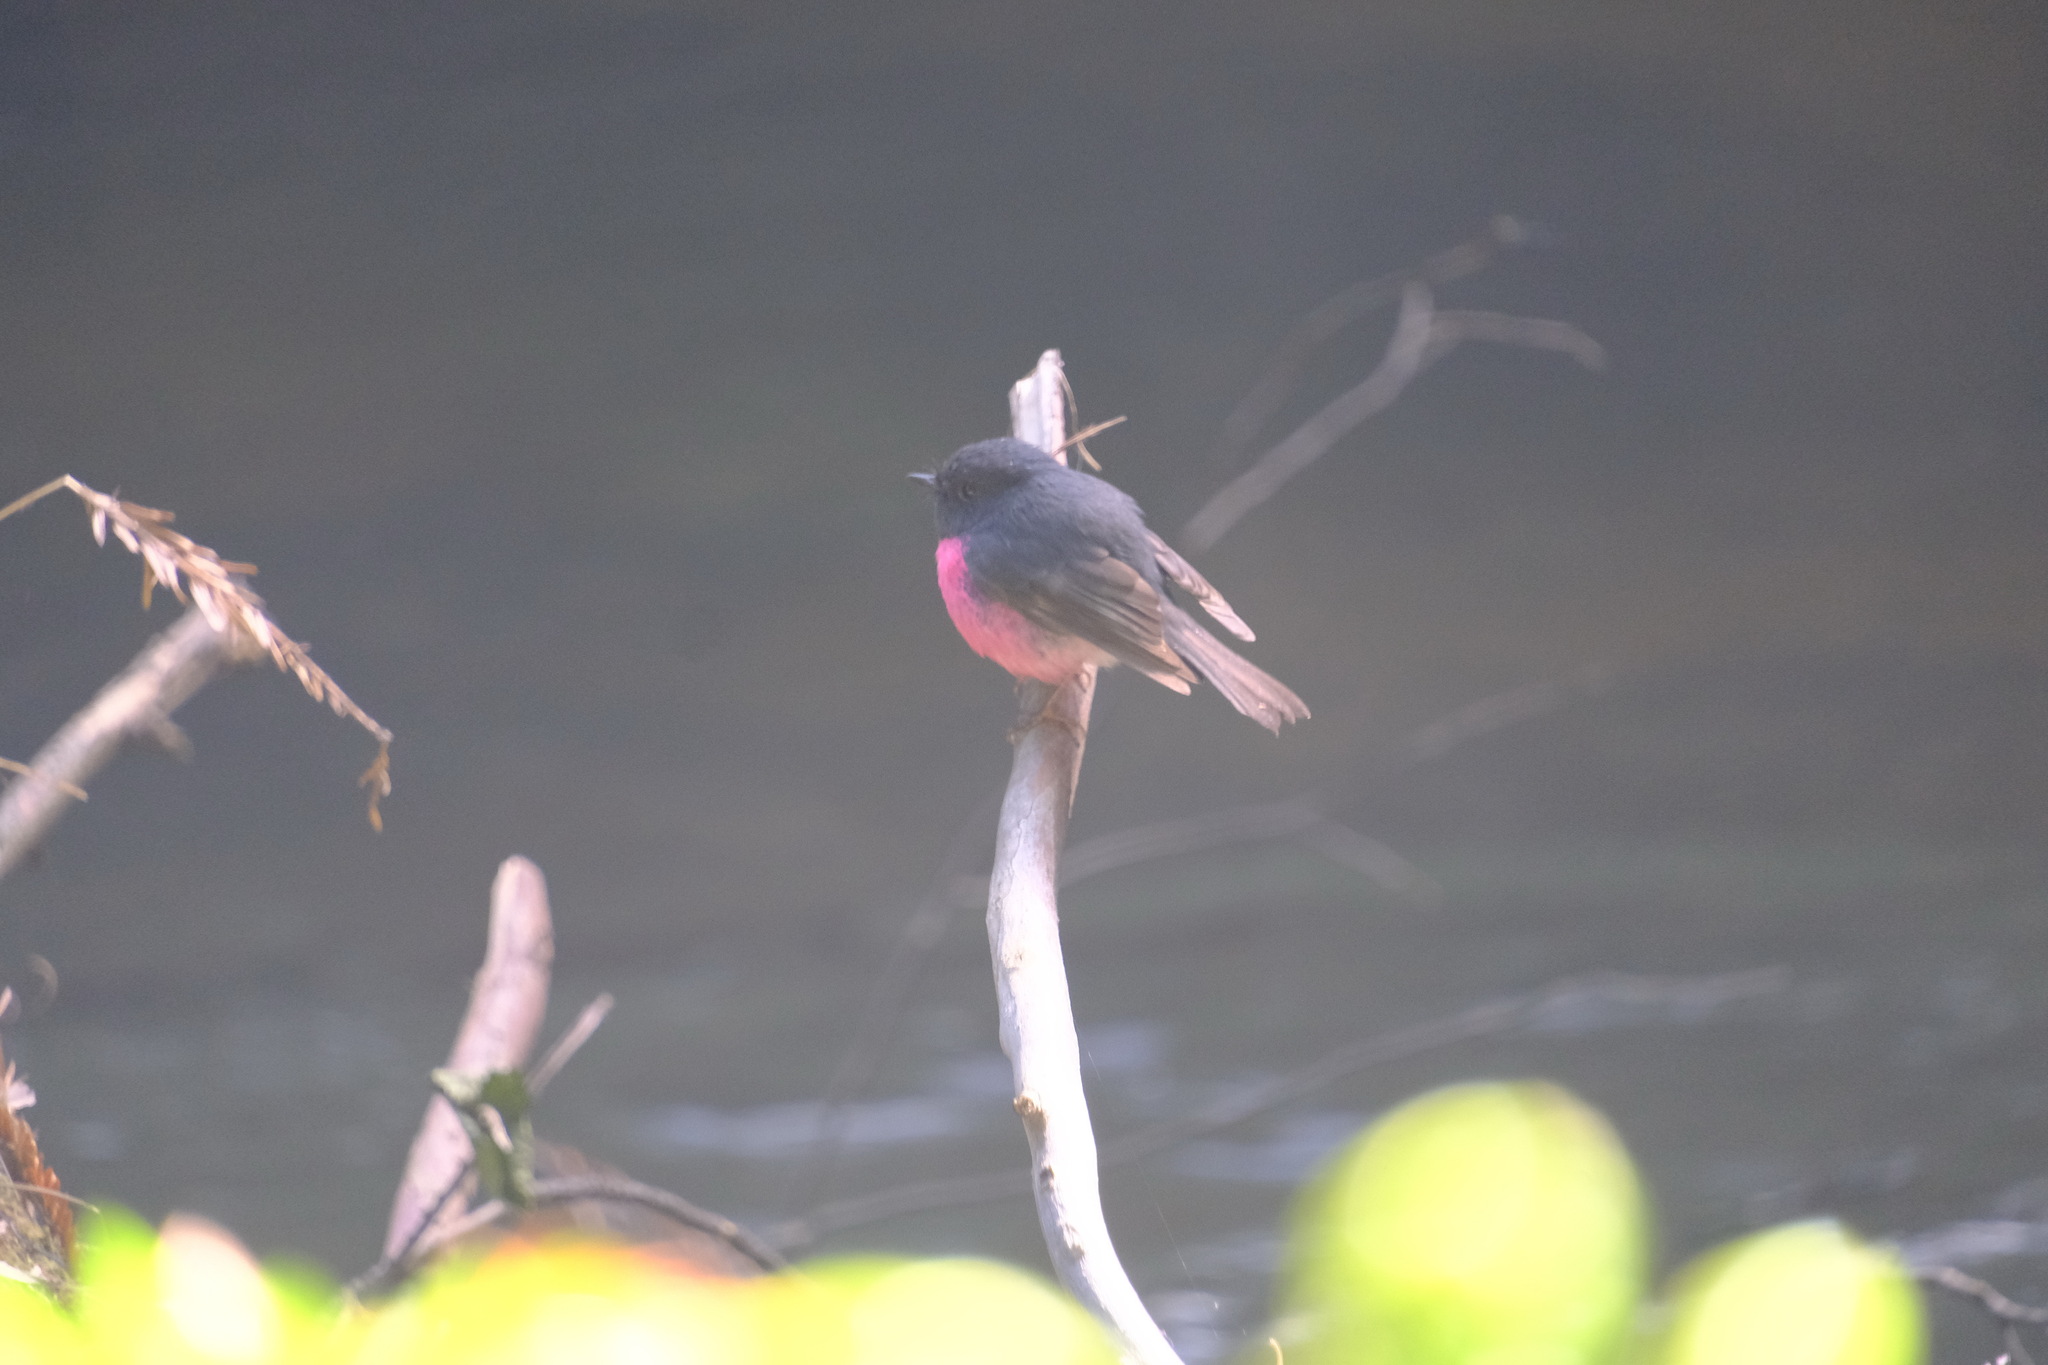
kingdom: Animalia
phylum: Chordata
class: Aves
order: Passeriformes
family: Petroicidae
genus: Petroica
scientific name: Petroica rodinogaster
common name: Pink robin
